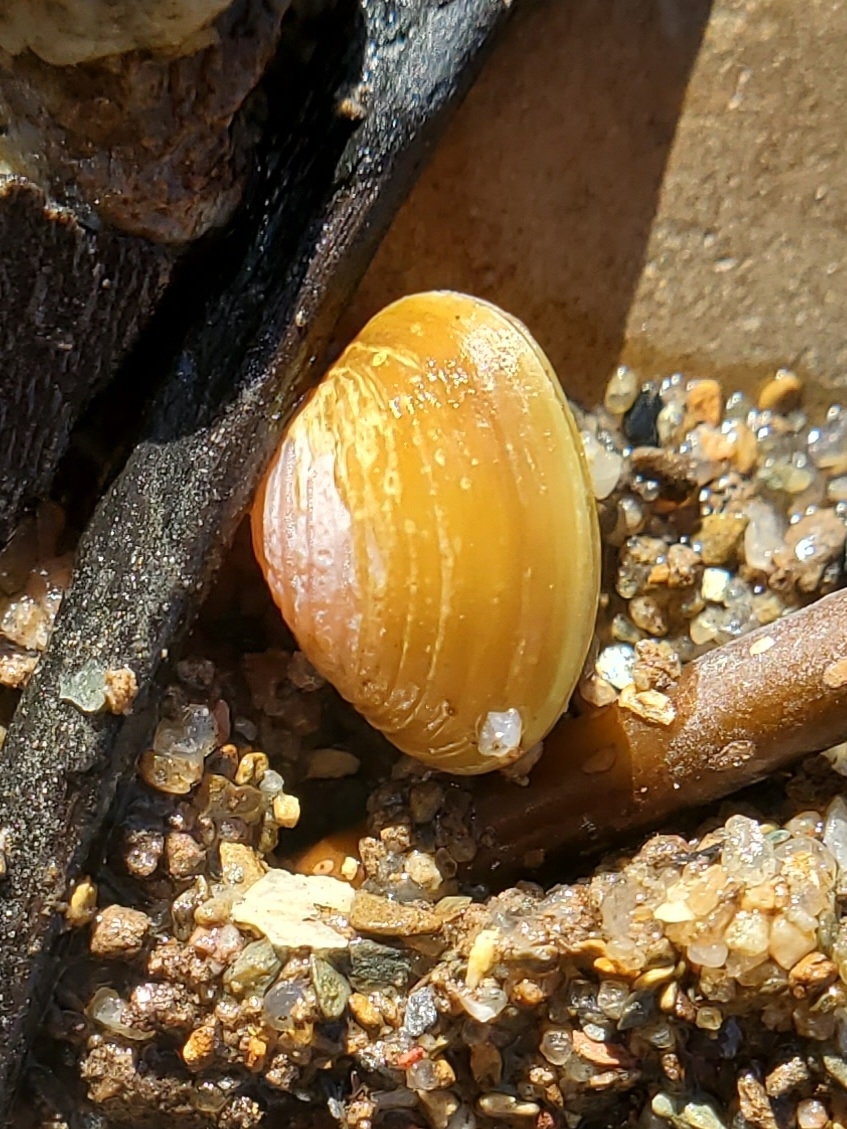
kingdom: Animalia
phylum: Mollusca
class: Bivalvia
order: Venerida
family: Cyrenidae
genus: Corbicula
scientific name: Corbicula fluminea
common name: Asian clam
